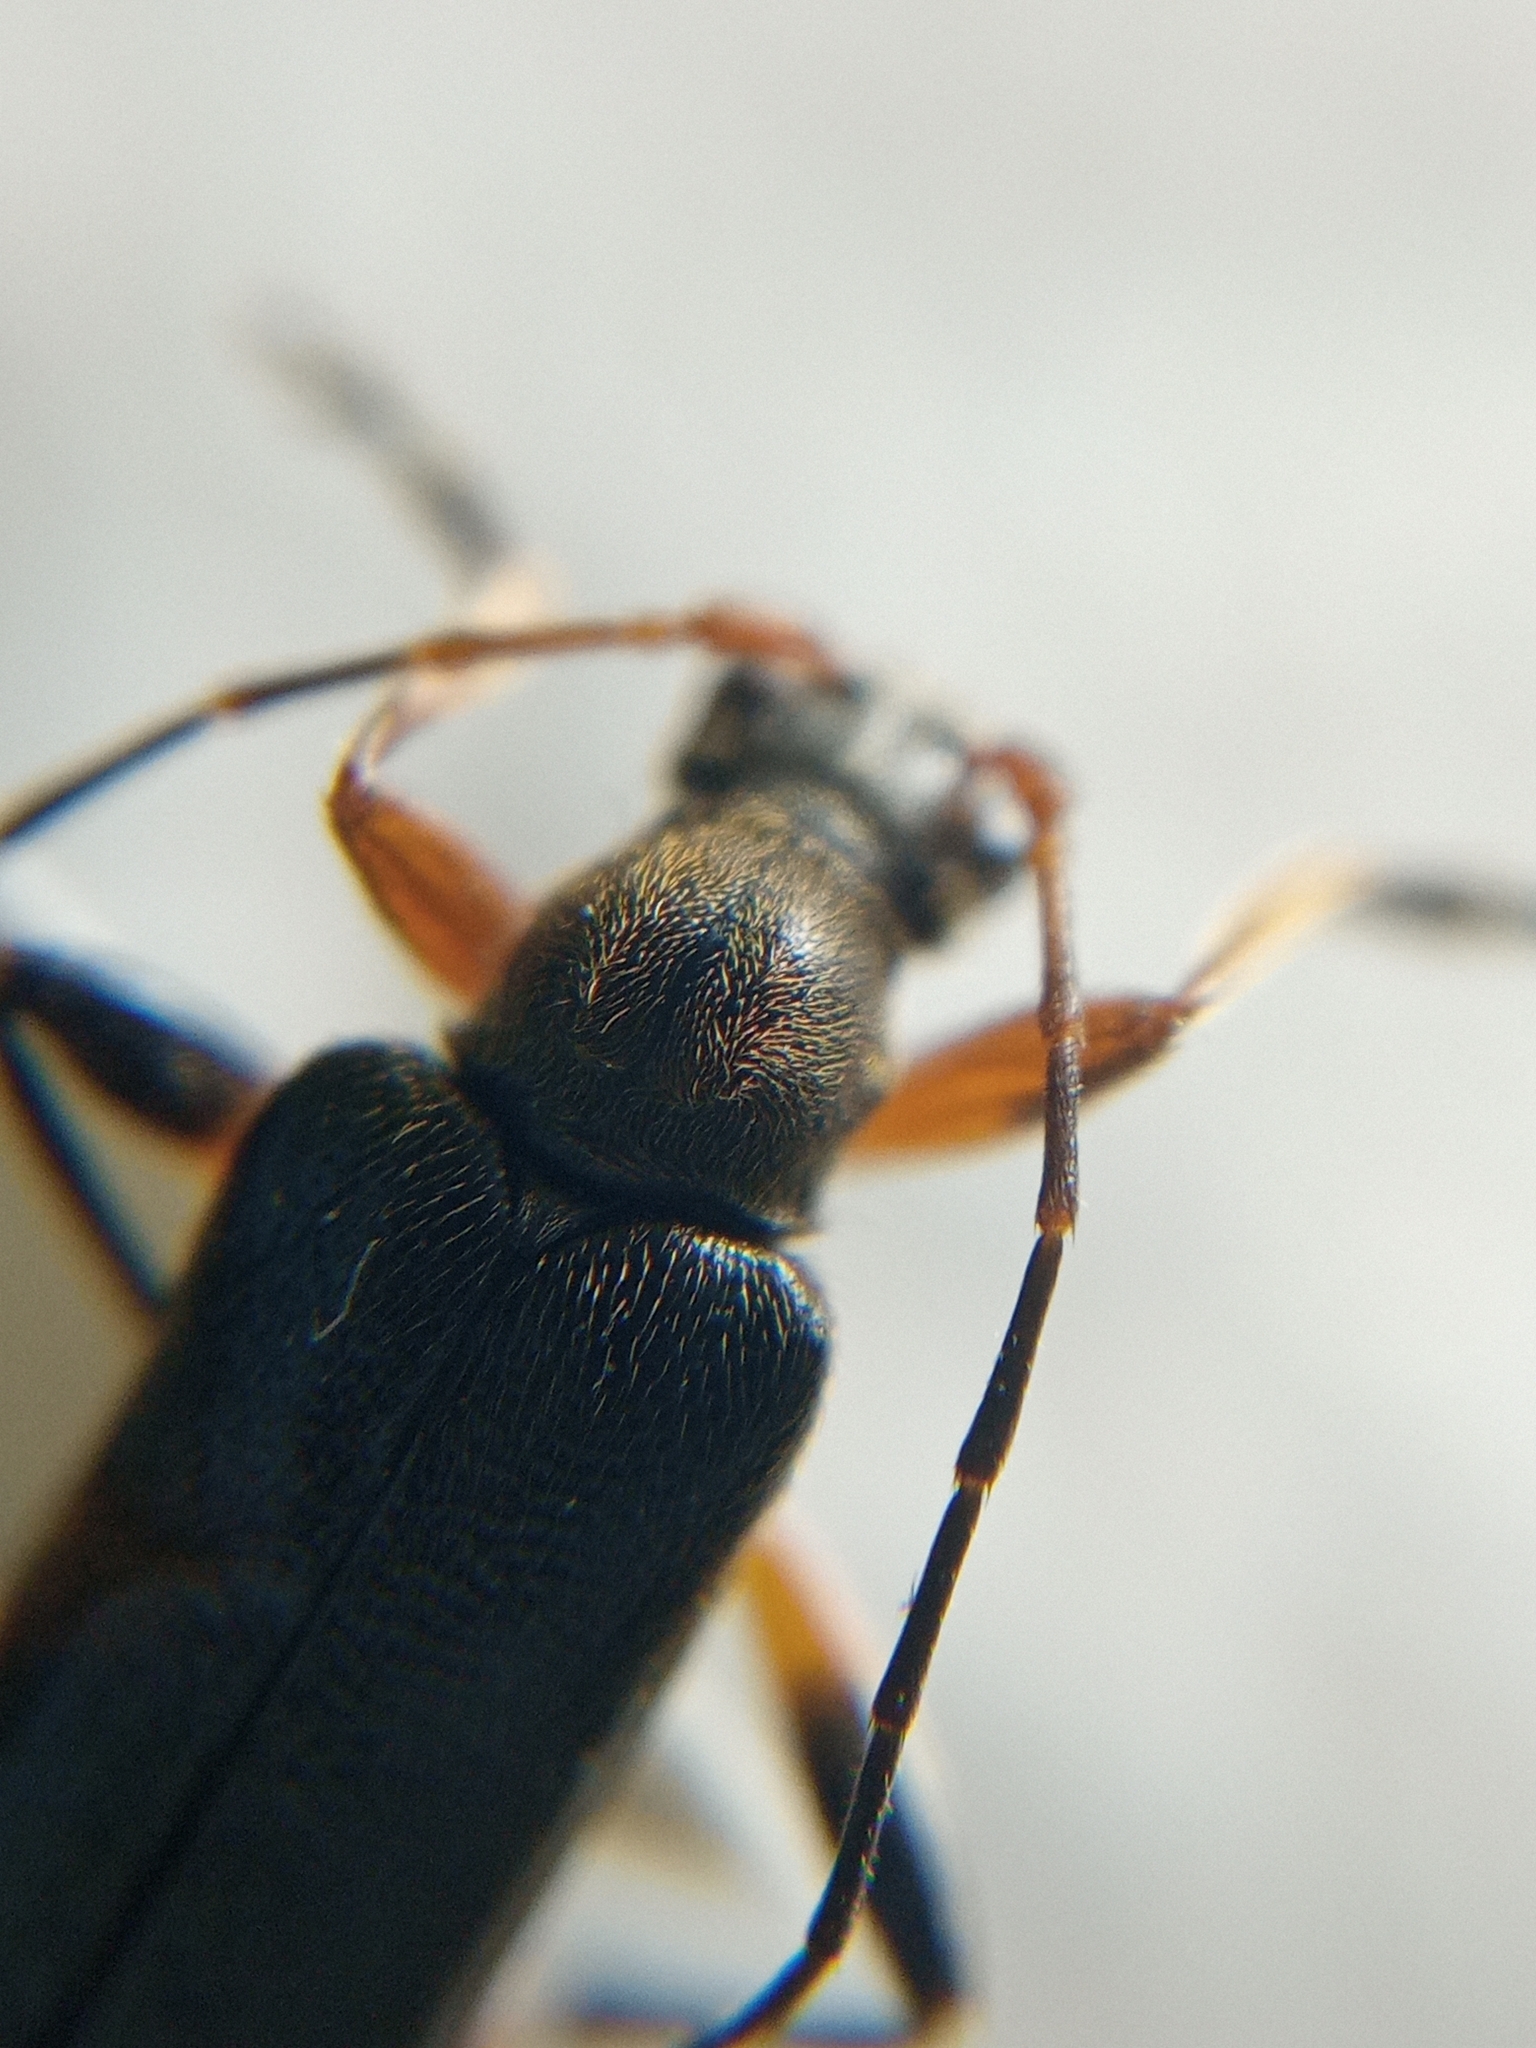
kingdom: Animalia
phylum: Arthropoda
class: Insecta
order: Coleoptera
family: Cerambycidae
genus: Cortodera
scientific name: Cortodera femorata
